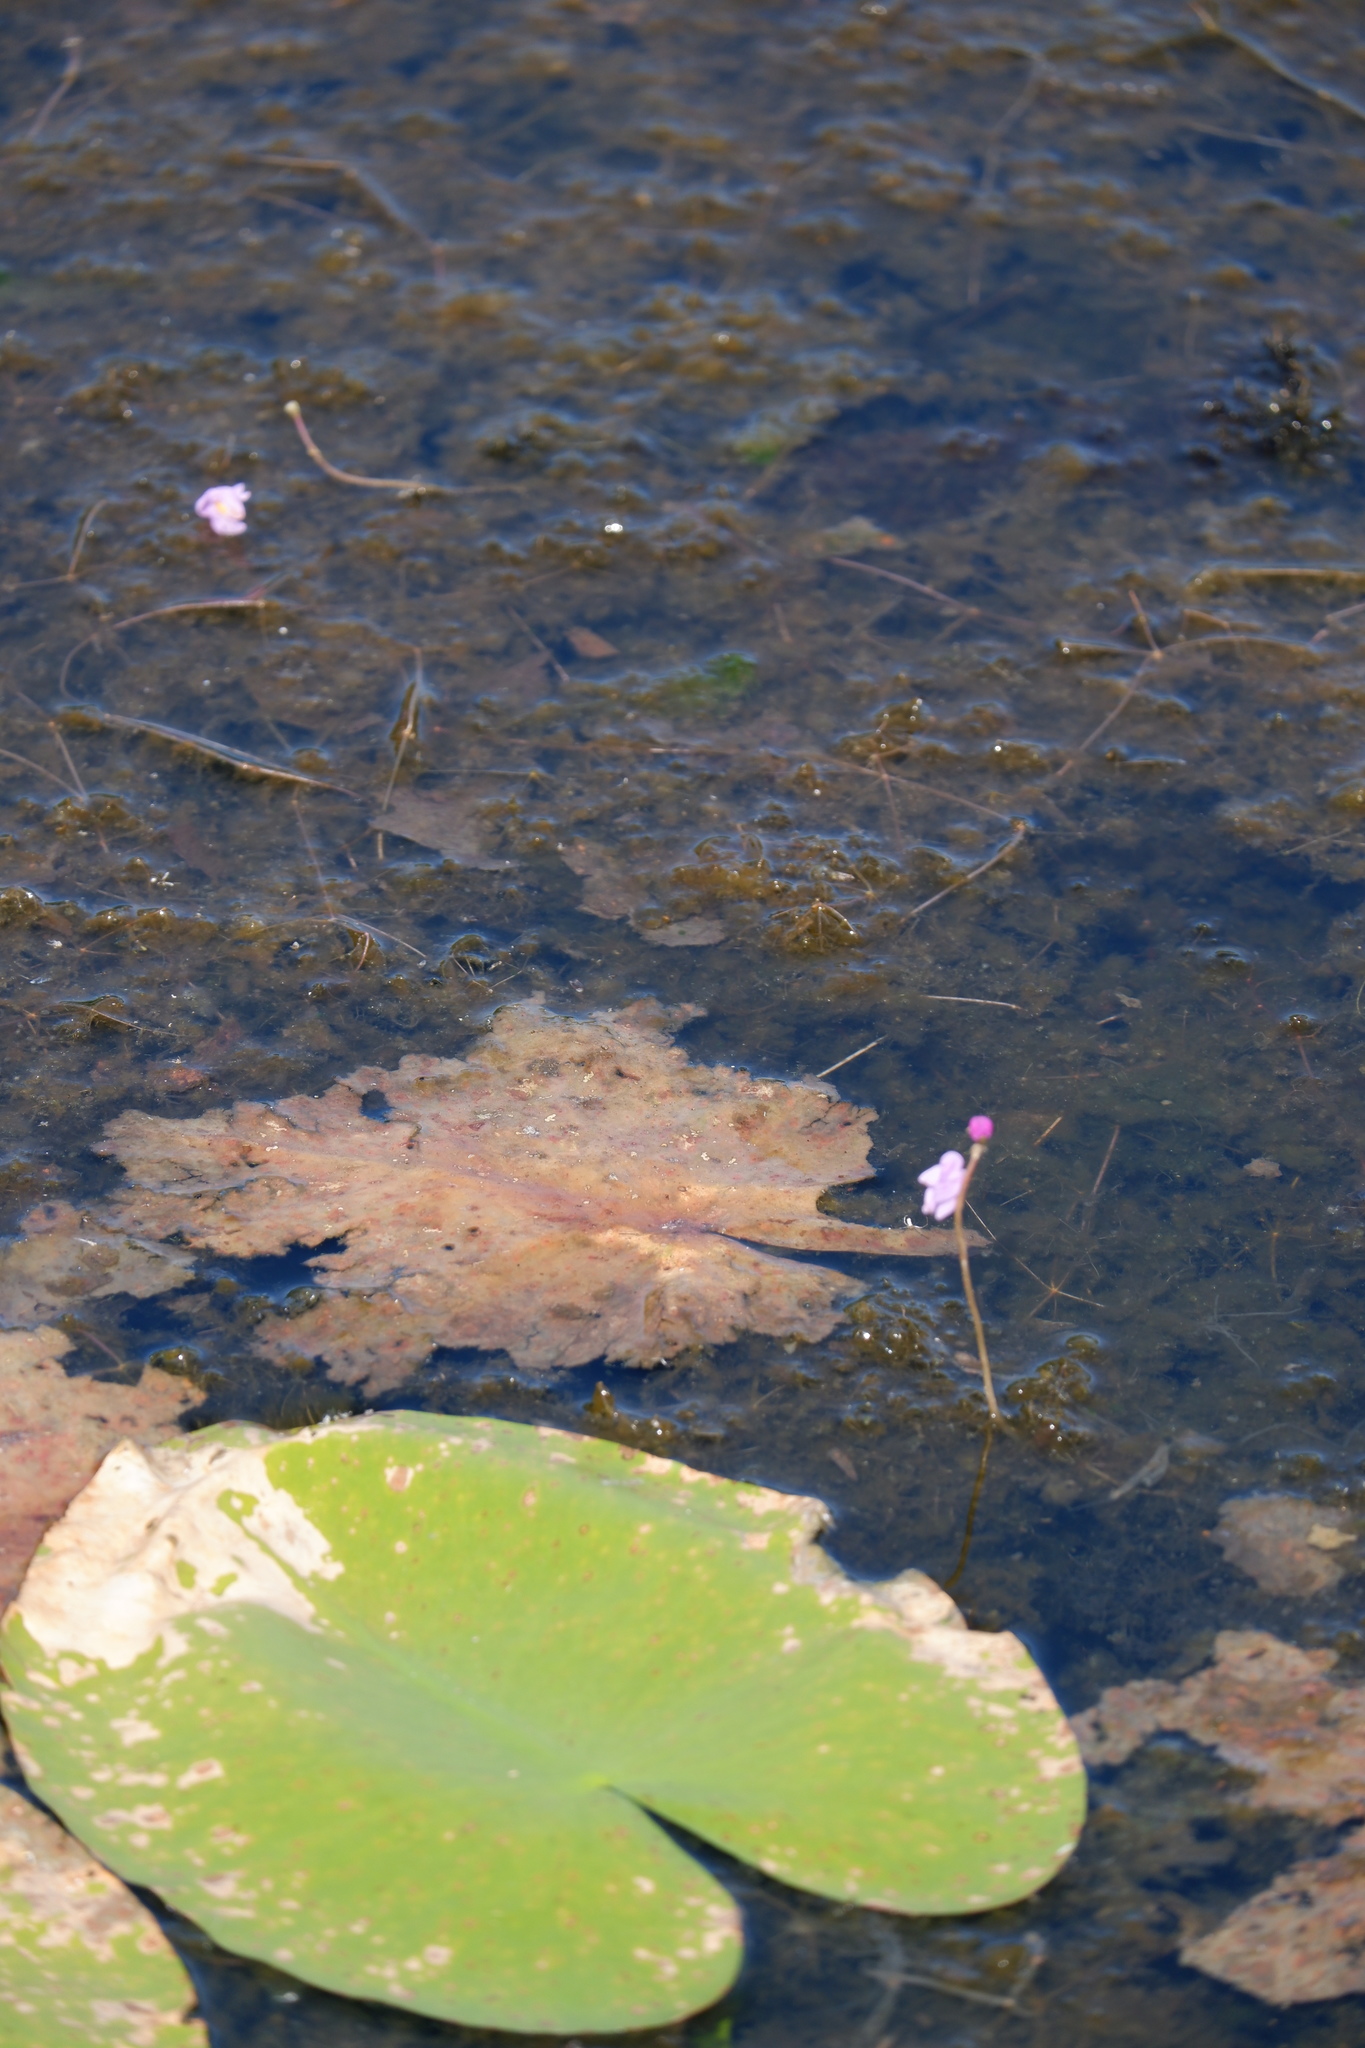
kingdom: Plantae
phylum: Tracheophyta
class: Magnoliopsida
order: Lamiales
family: Lentibulariaceae
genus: Utricularia
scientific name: Utricularia purpurea
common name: Eastern purple bladderwort
